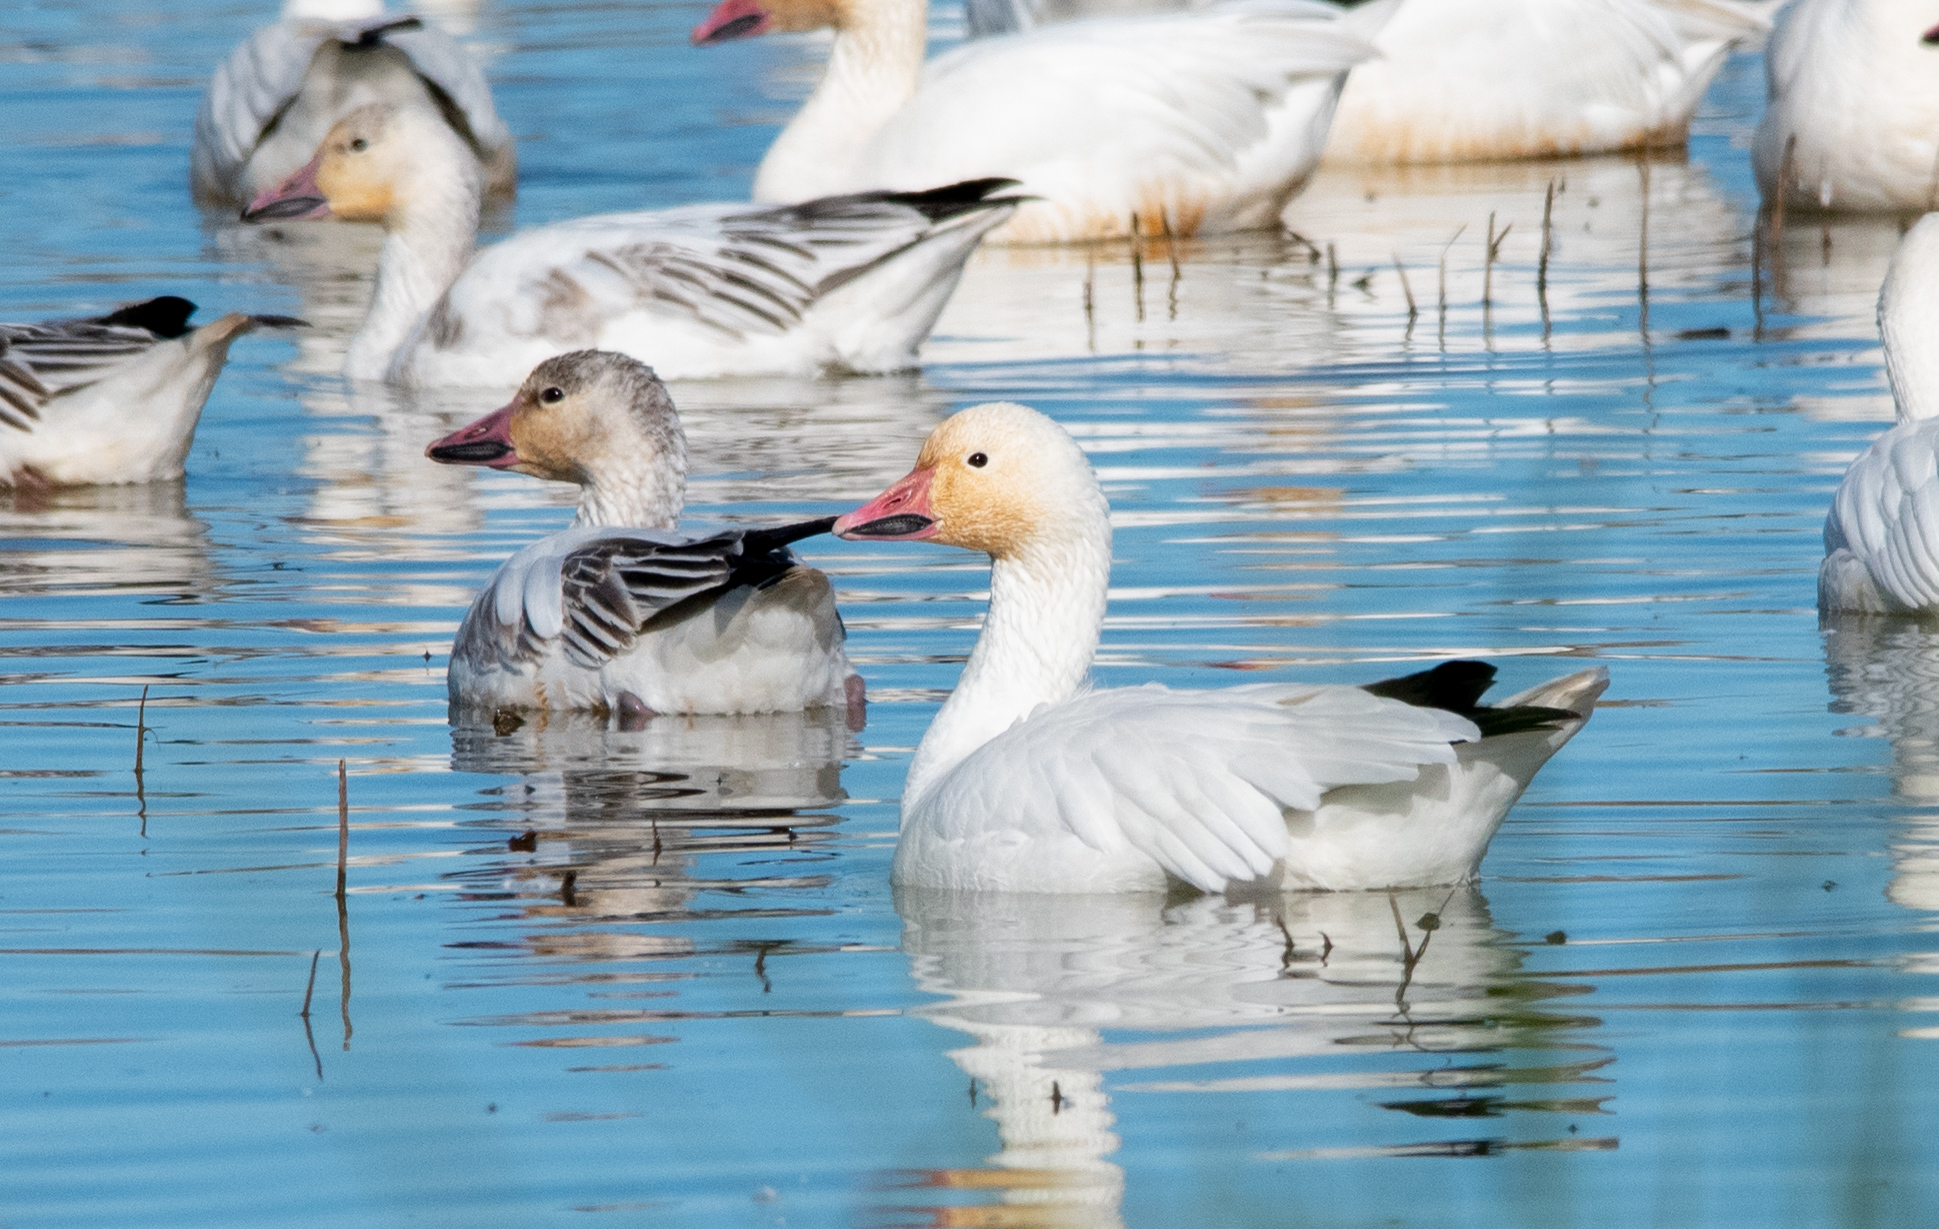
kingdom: Animalia
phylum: Chordata
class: Aves
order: Anseriformes
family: Anatidae
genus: Anser
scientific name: Anser caerulescens
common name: Snow goose
